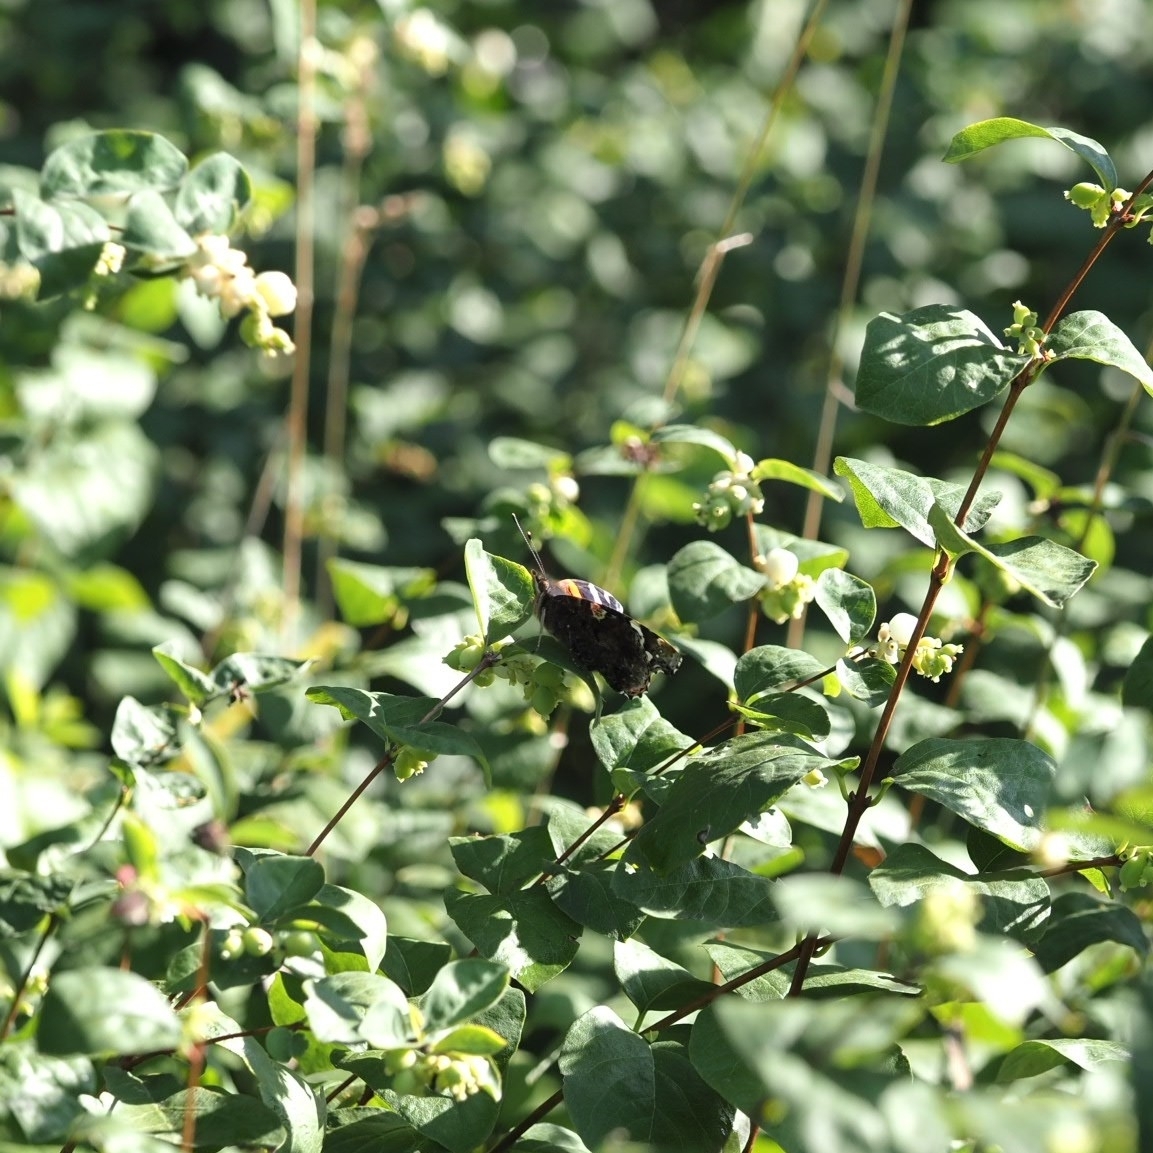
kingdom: Animalia
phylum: Arthropoda
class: Insecta
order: Lepidoptera
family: Nymphalidae
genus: Vanessa
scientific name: Vanessa atalanta
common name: Red admiral
